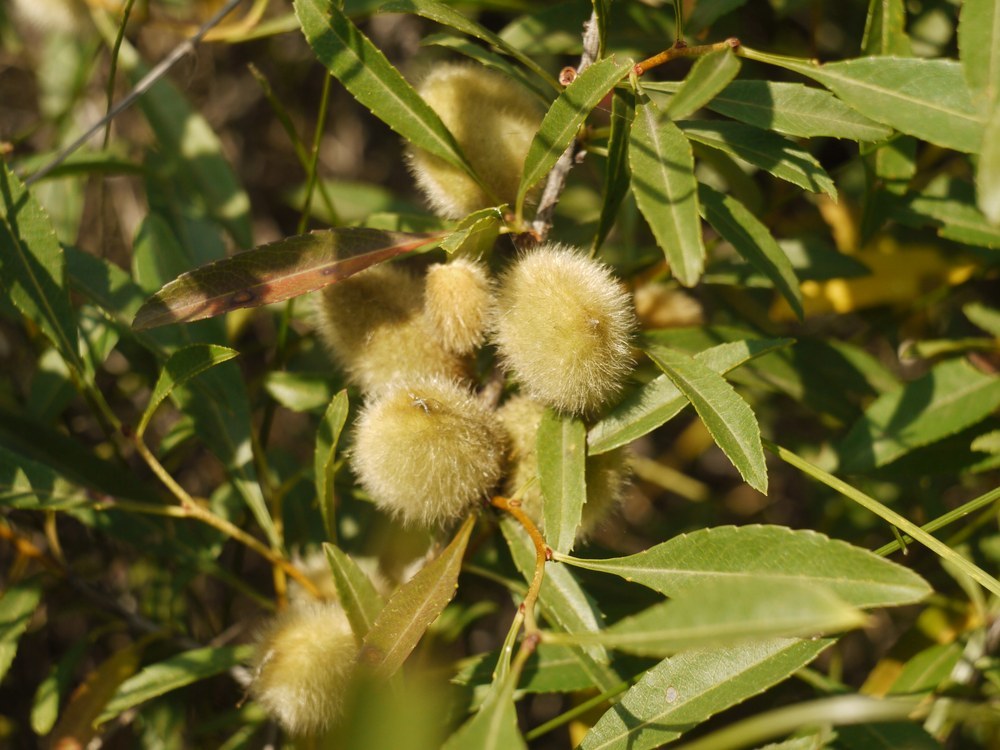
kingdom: Plantae
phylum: Tracheophyta
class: Magnoliopsida
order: Rosales
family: Rosaceae
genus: Prunus
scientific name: Prunus tenella
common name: Dwarf russian almond
